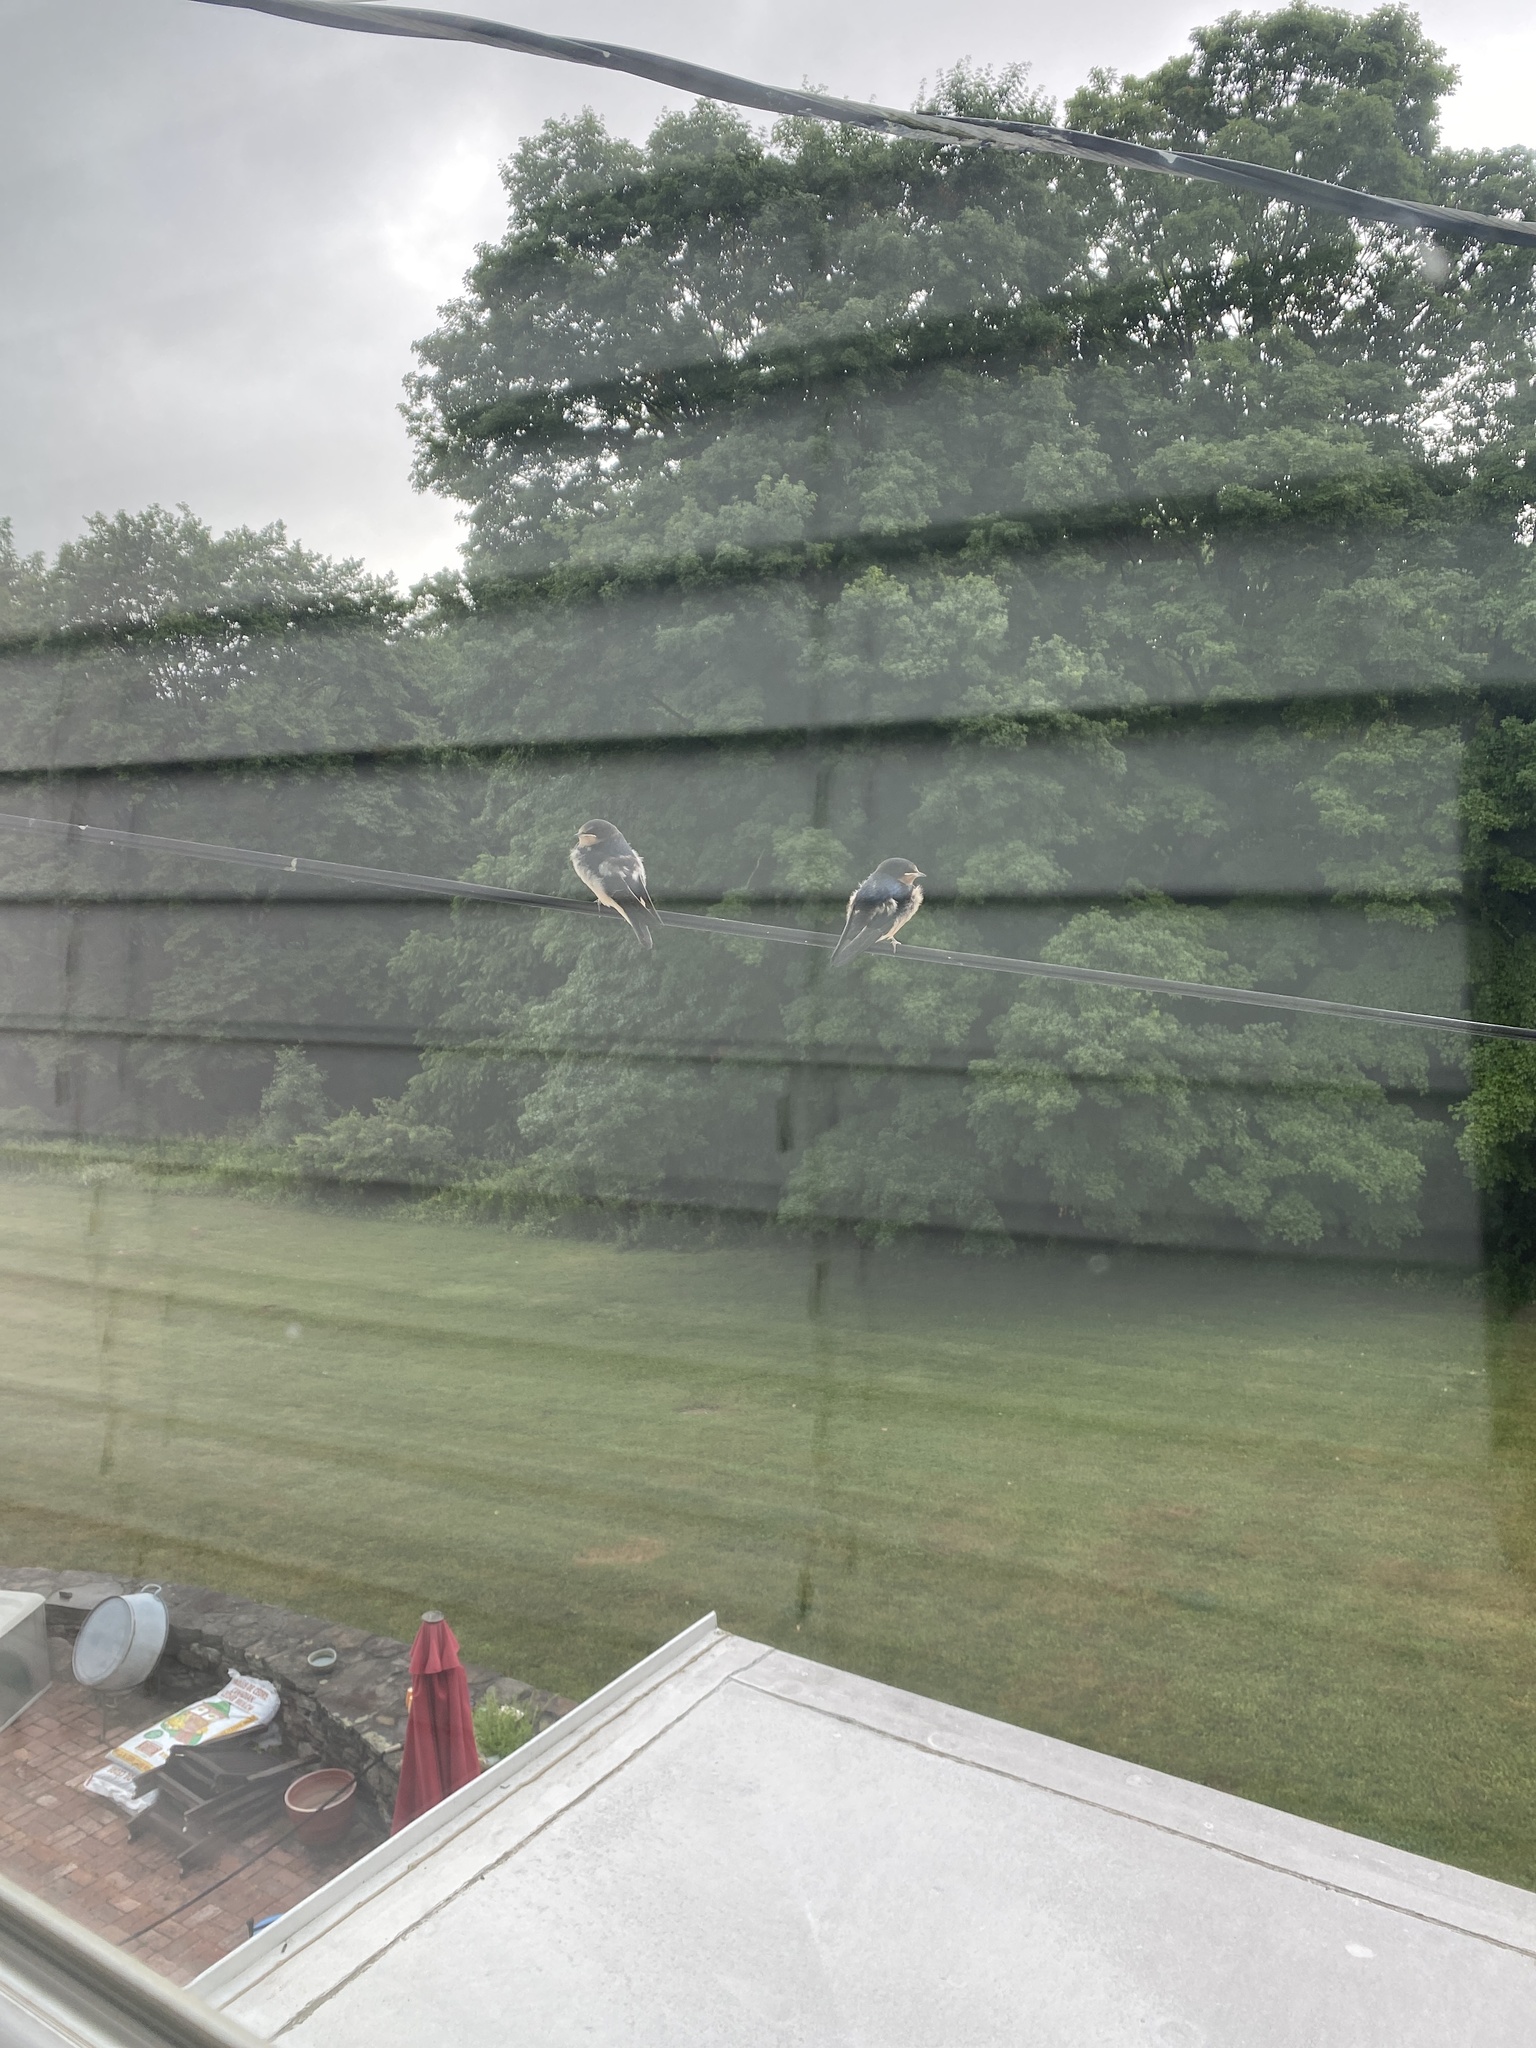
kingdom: Animalia
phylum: Chordata
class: Aves
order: Passeriformes
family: Hirundinidae
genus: Hirundo
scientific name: Hirundo rustica
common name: Barn swallow
